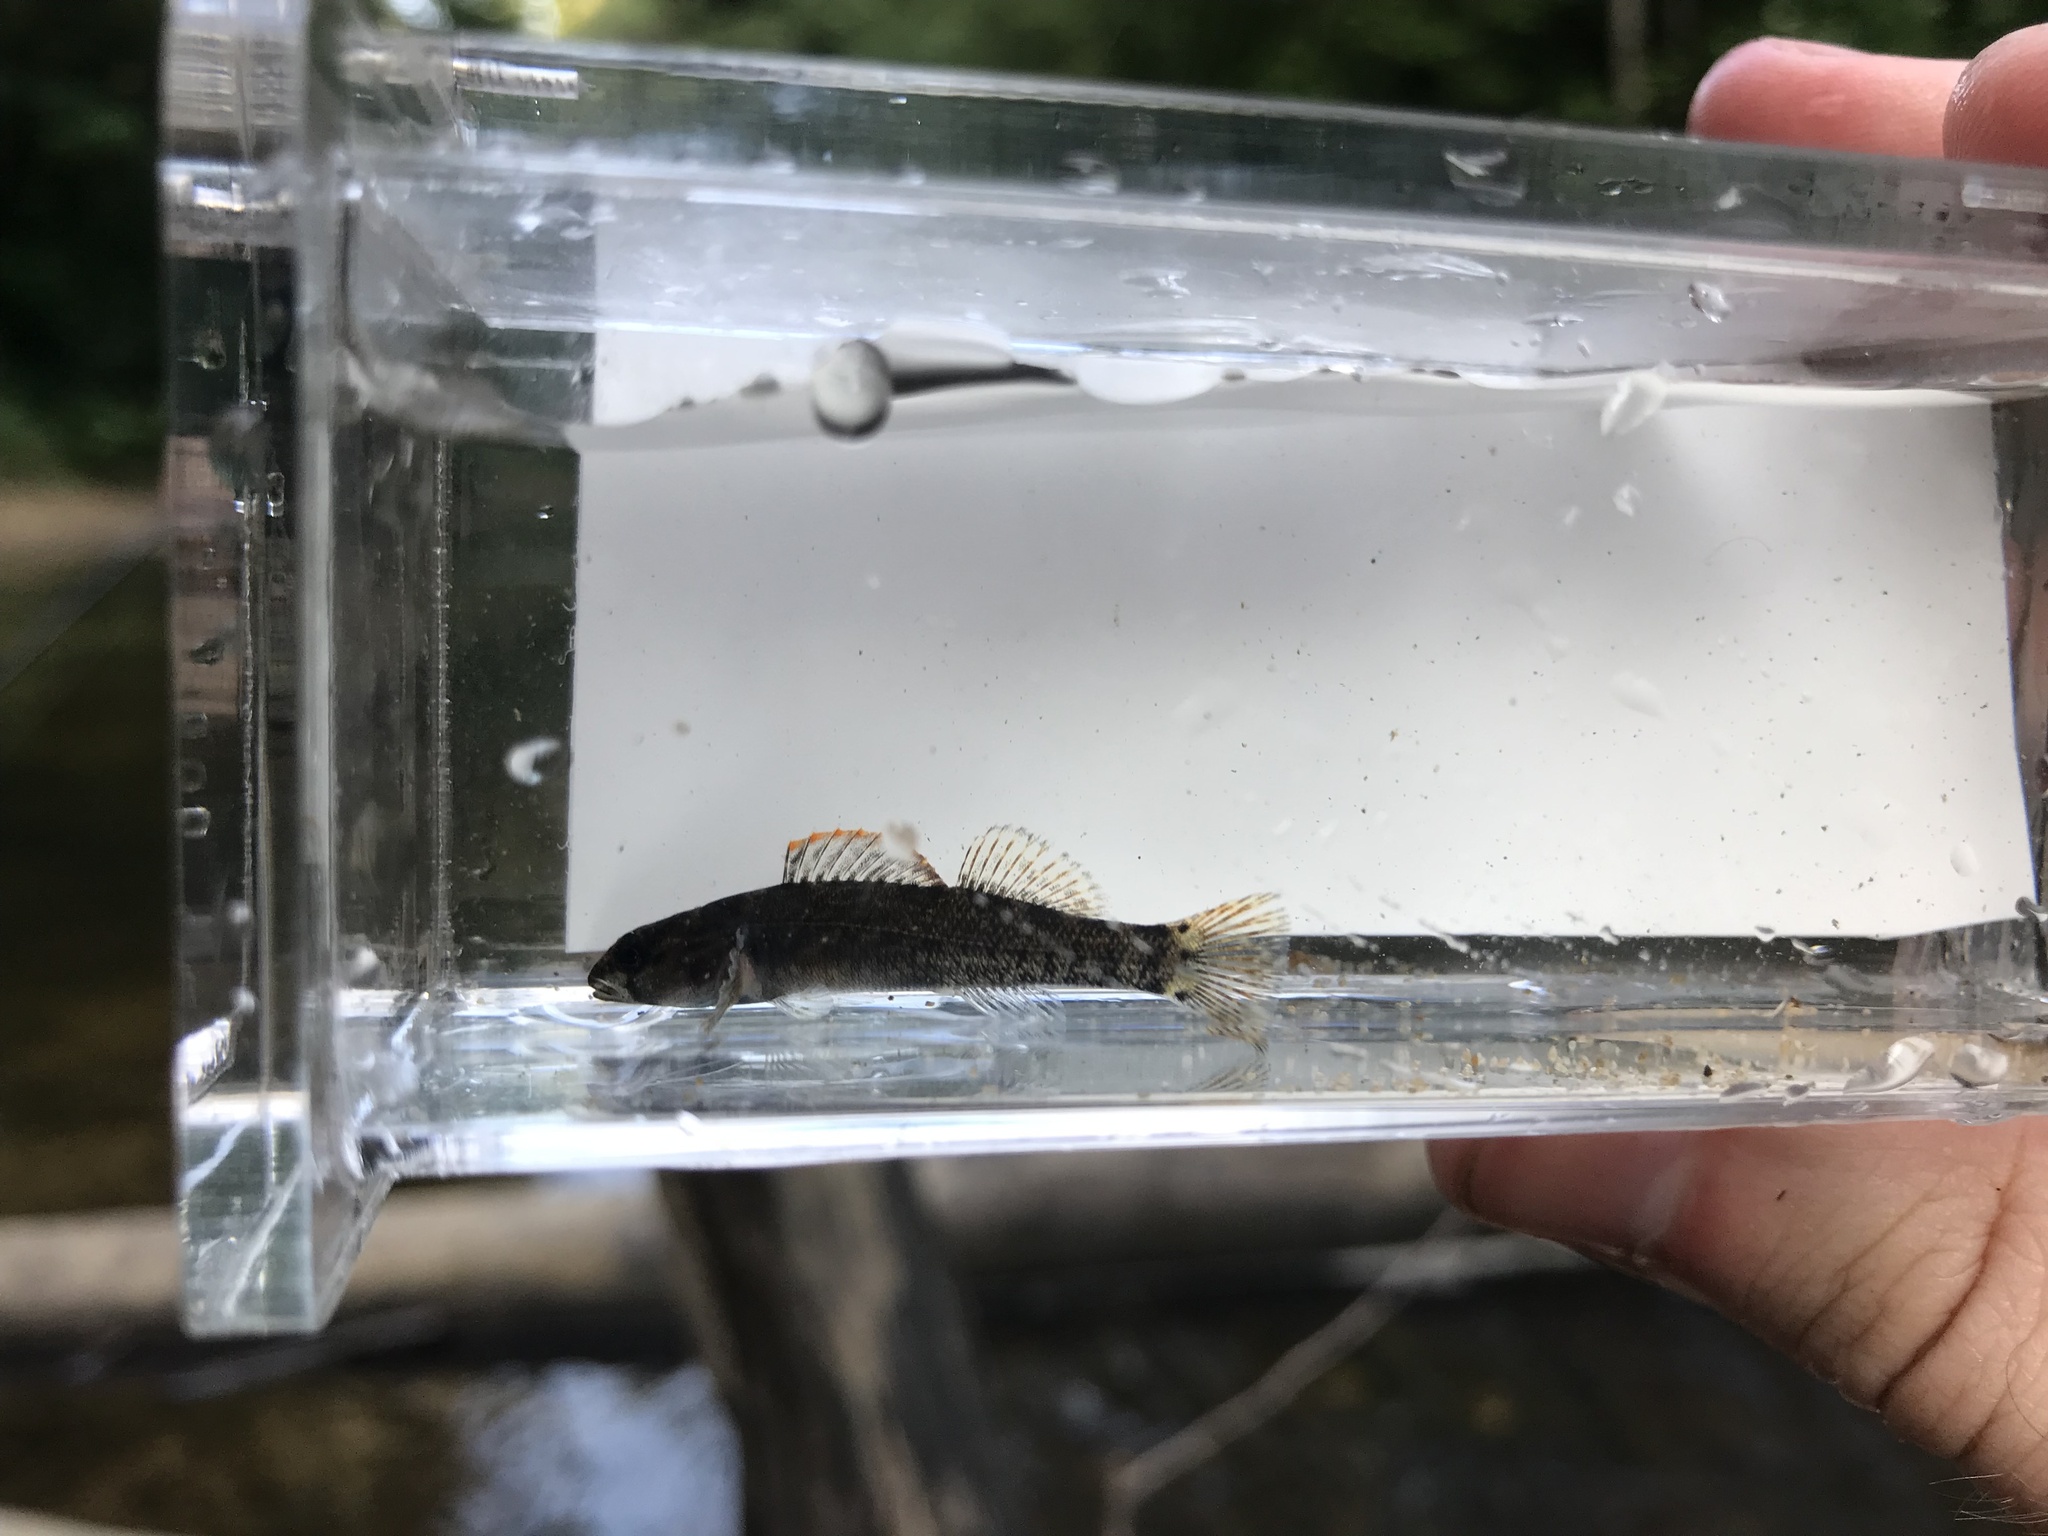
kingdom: Animalia
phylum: Chordata
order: Perciformes
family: Percidae
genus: Etheostoma
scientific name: Etheostoma douglasi
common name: Tuskaloosa darter
